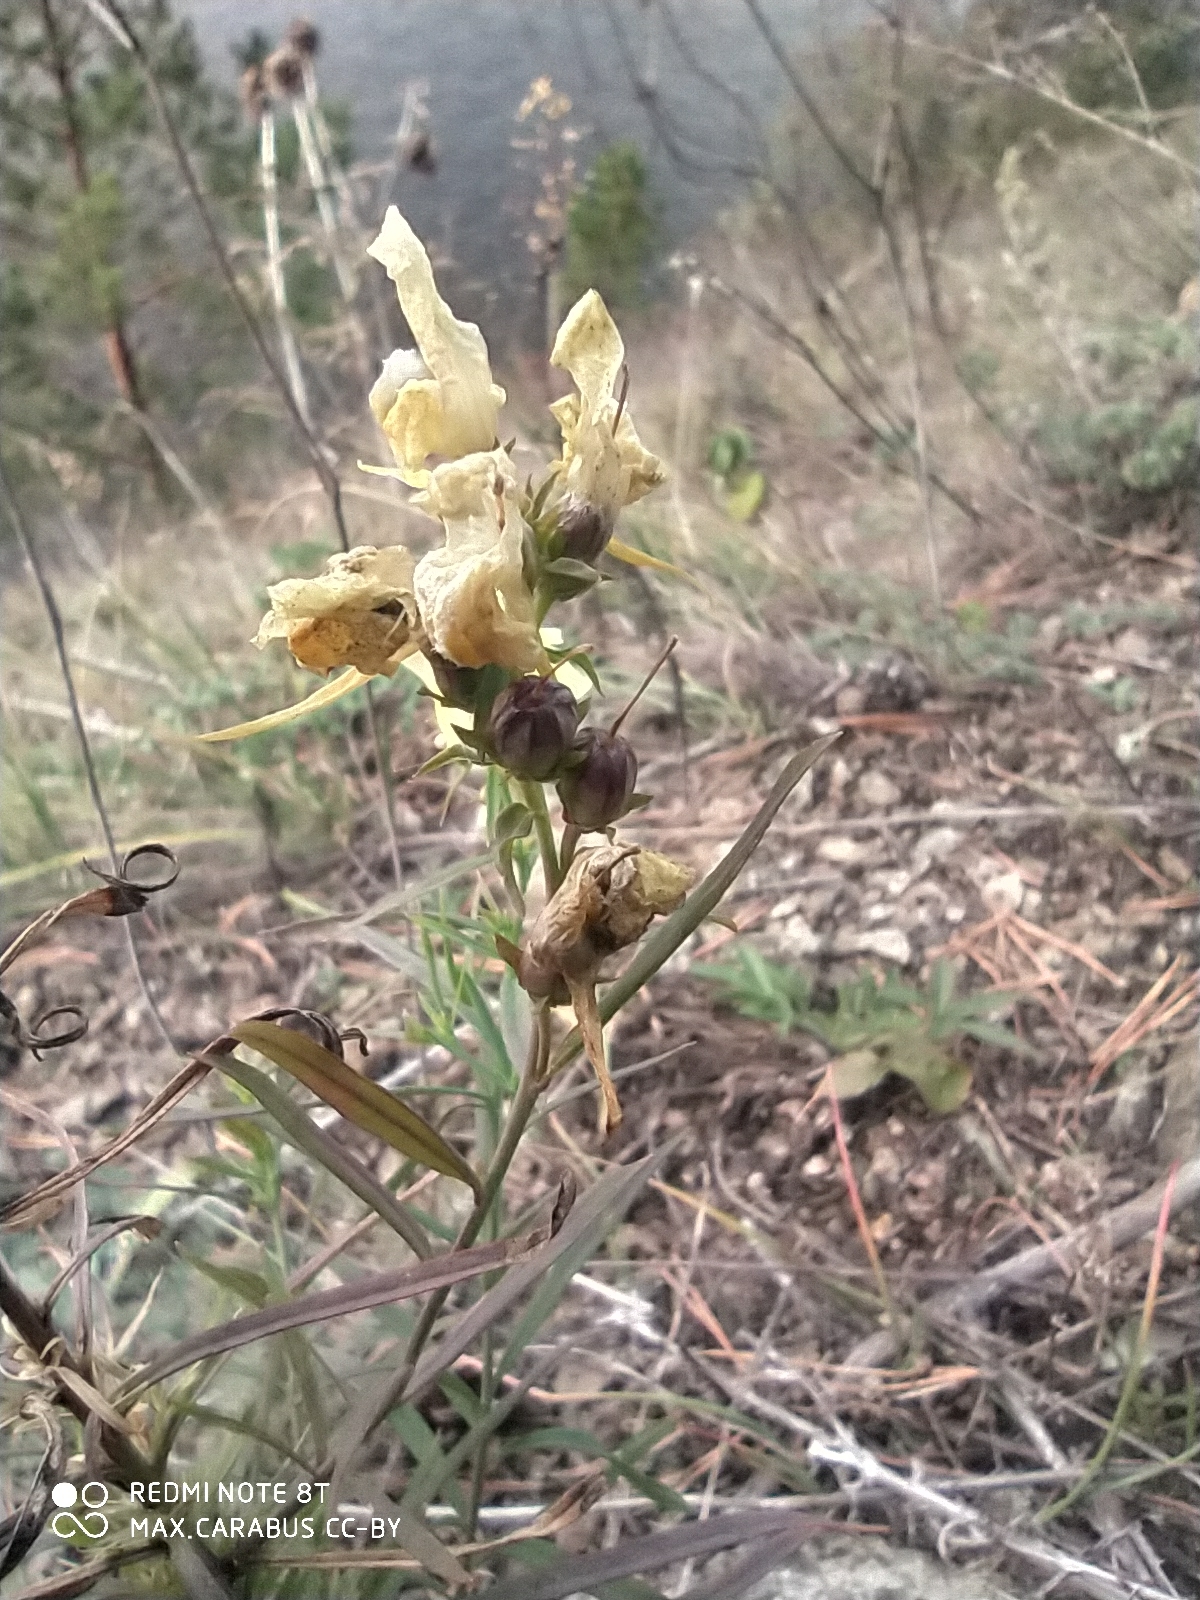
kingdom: Plantae
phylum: Tracheophyta
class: Magnoliopsida
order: Lamiales
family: Plantaginaceae
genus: Linaria
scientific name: Linaria vulgaris
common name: Butter and eggs
